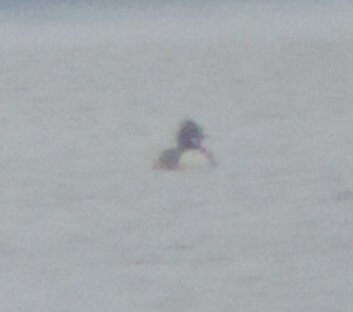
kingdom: Animalia
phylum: Chordata
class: Aves
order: Anseriformes
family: Anatidae
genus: Mergus
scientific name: Mergus merganser
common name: Common merganser
